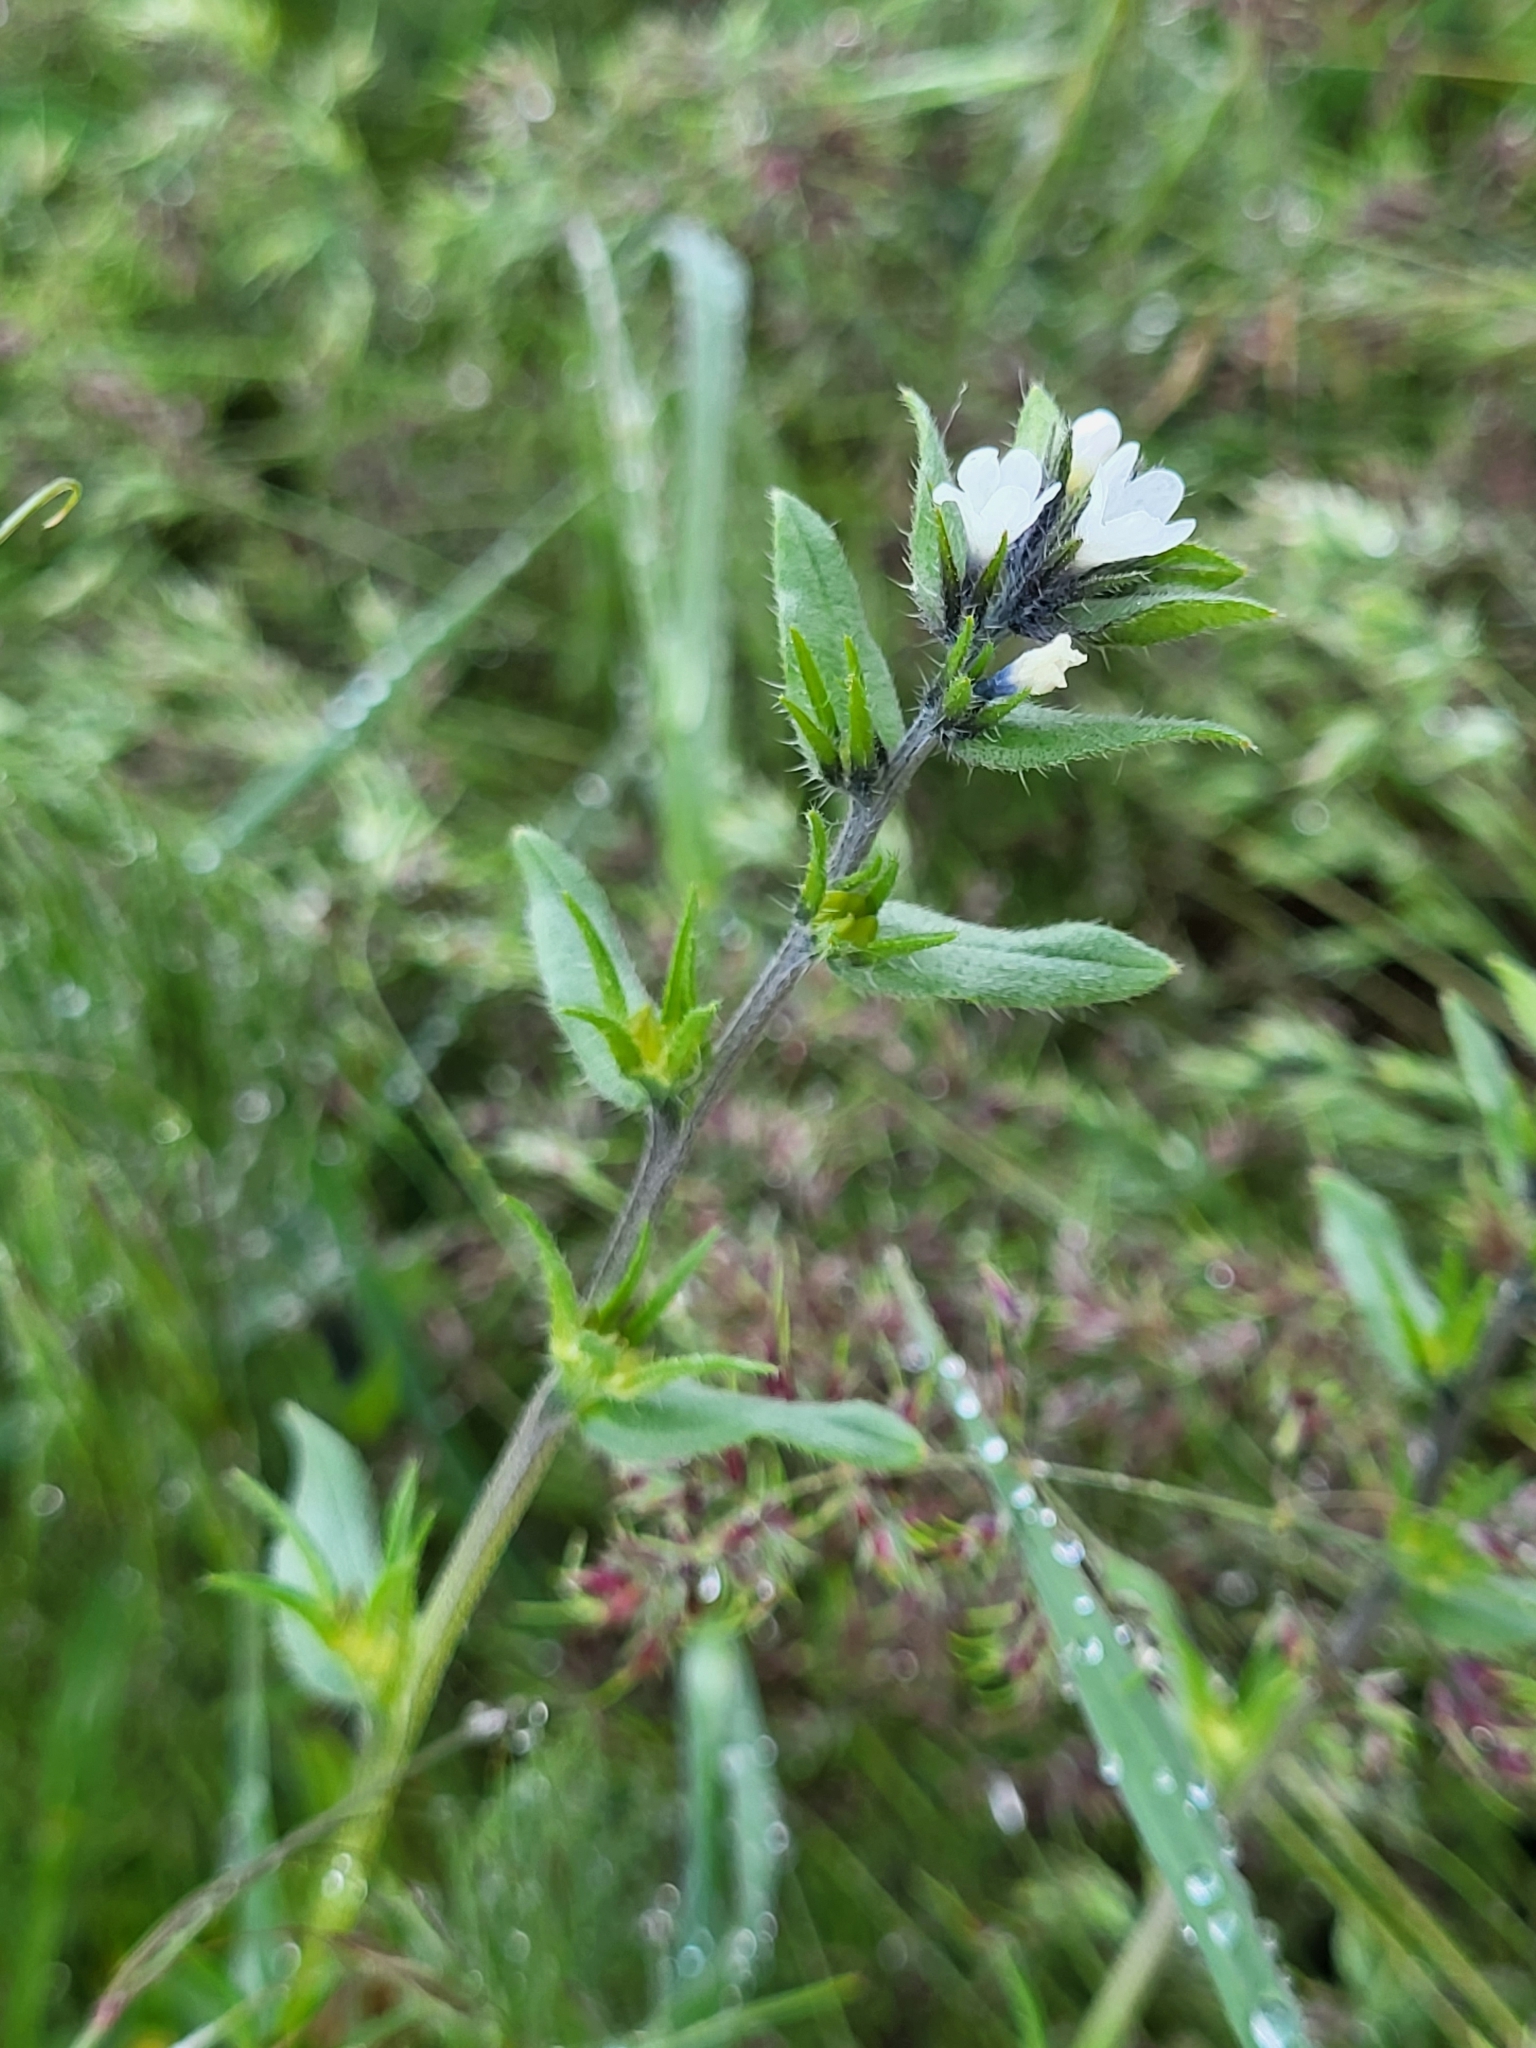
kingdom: Plantae
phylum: Tracheophyta
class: Magnoliopsida
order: Boraginales
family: Boraginaceae
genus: Buglossoides
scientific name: Buglossoides arvensis
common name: Corn gromwell
